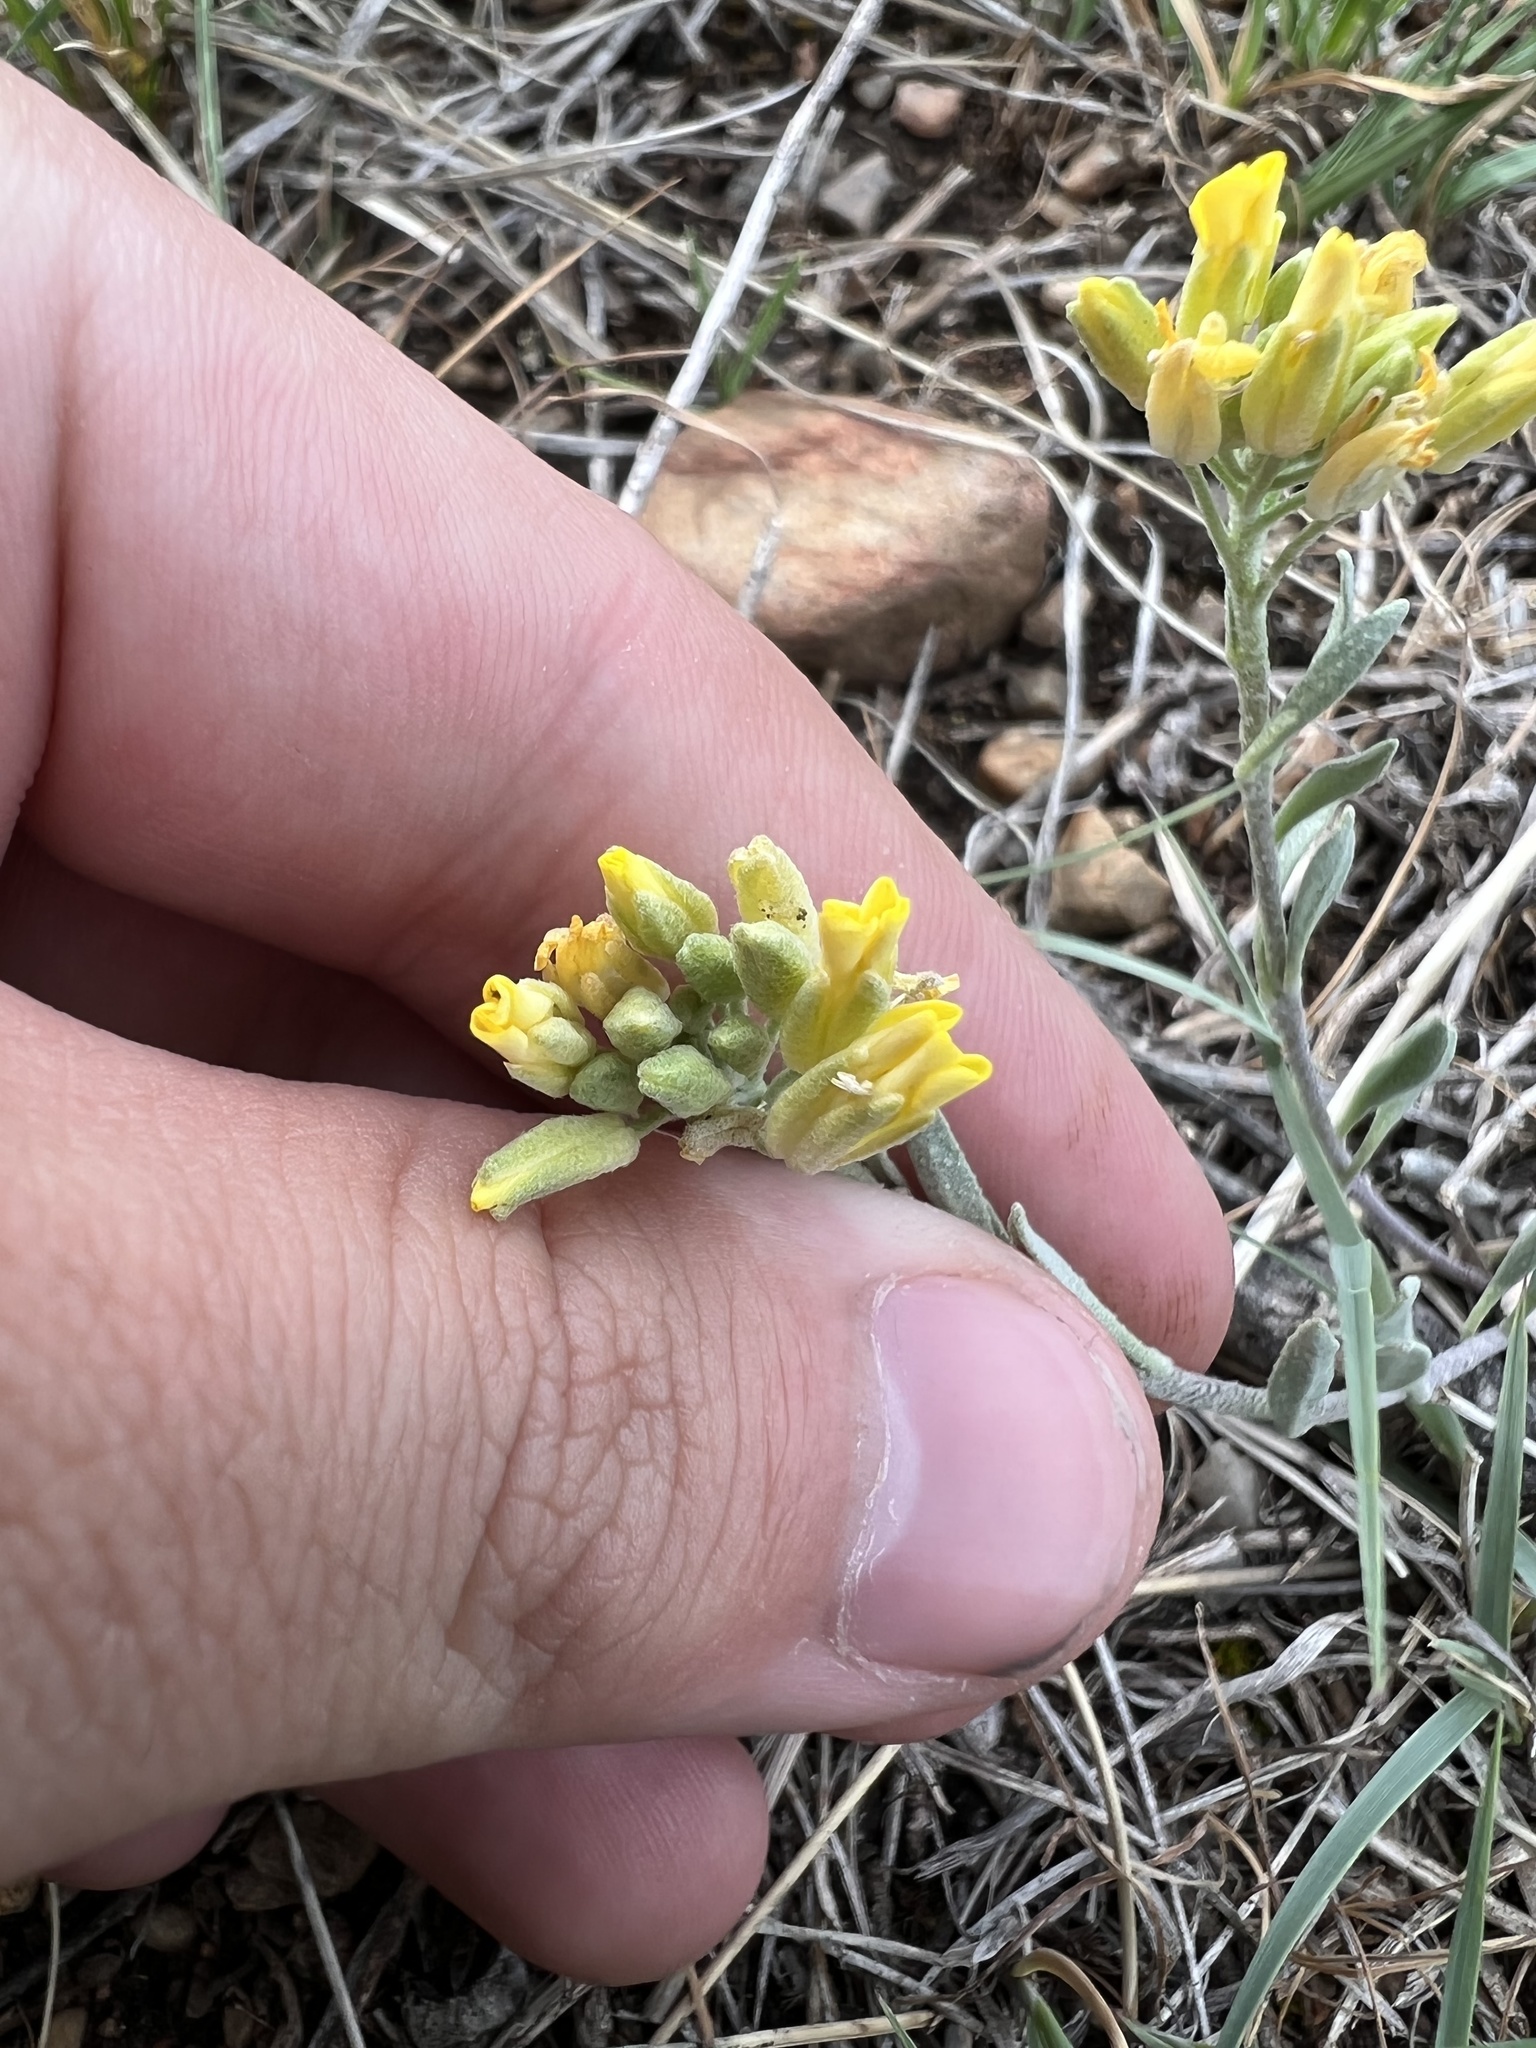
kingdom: Plantae
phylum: Tracheophyta
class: Magnoliopsida
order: Brassicales
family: Brassicaceae
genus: Physaria
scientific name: Physaria montana
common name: Mountain bladderpod
